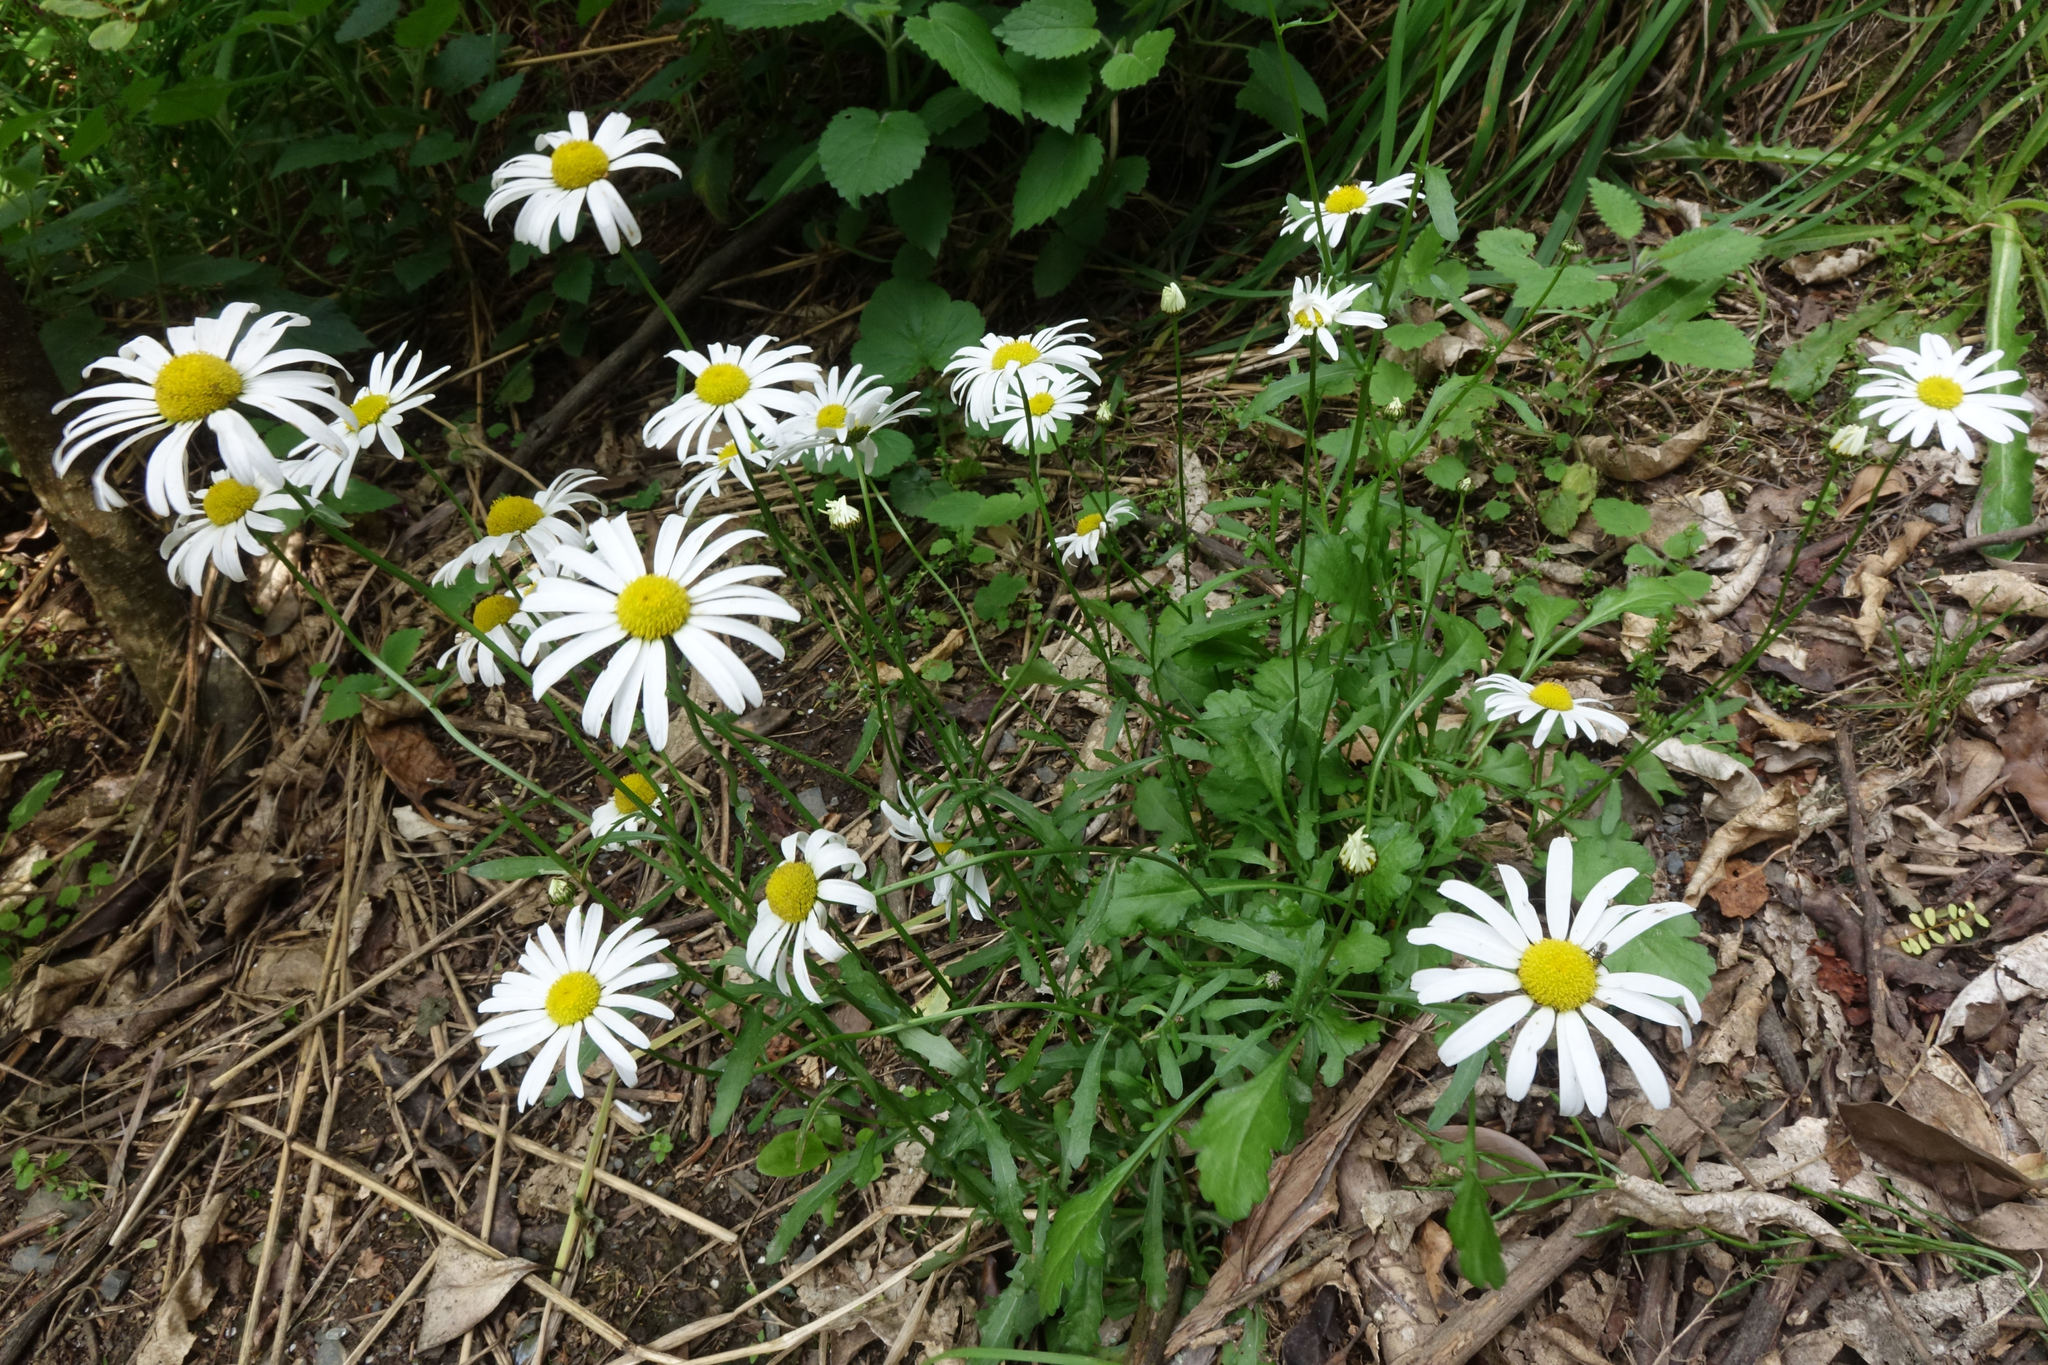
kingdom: Plantae
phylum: Tracheophyta
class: Magnoliopsida
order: Asterales
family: Asteraceae
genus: Leucanthemum
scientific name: Leucanthemum vulgare
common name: Oxeye daisy
